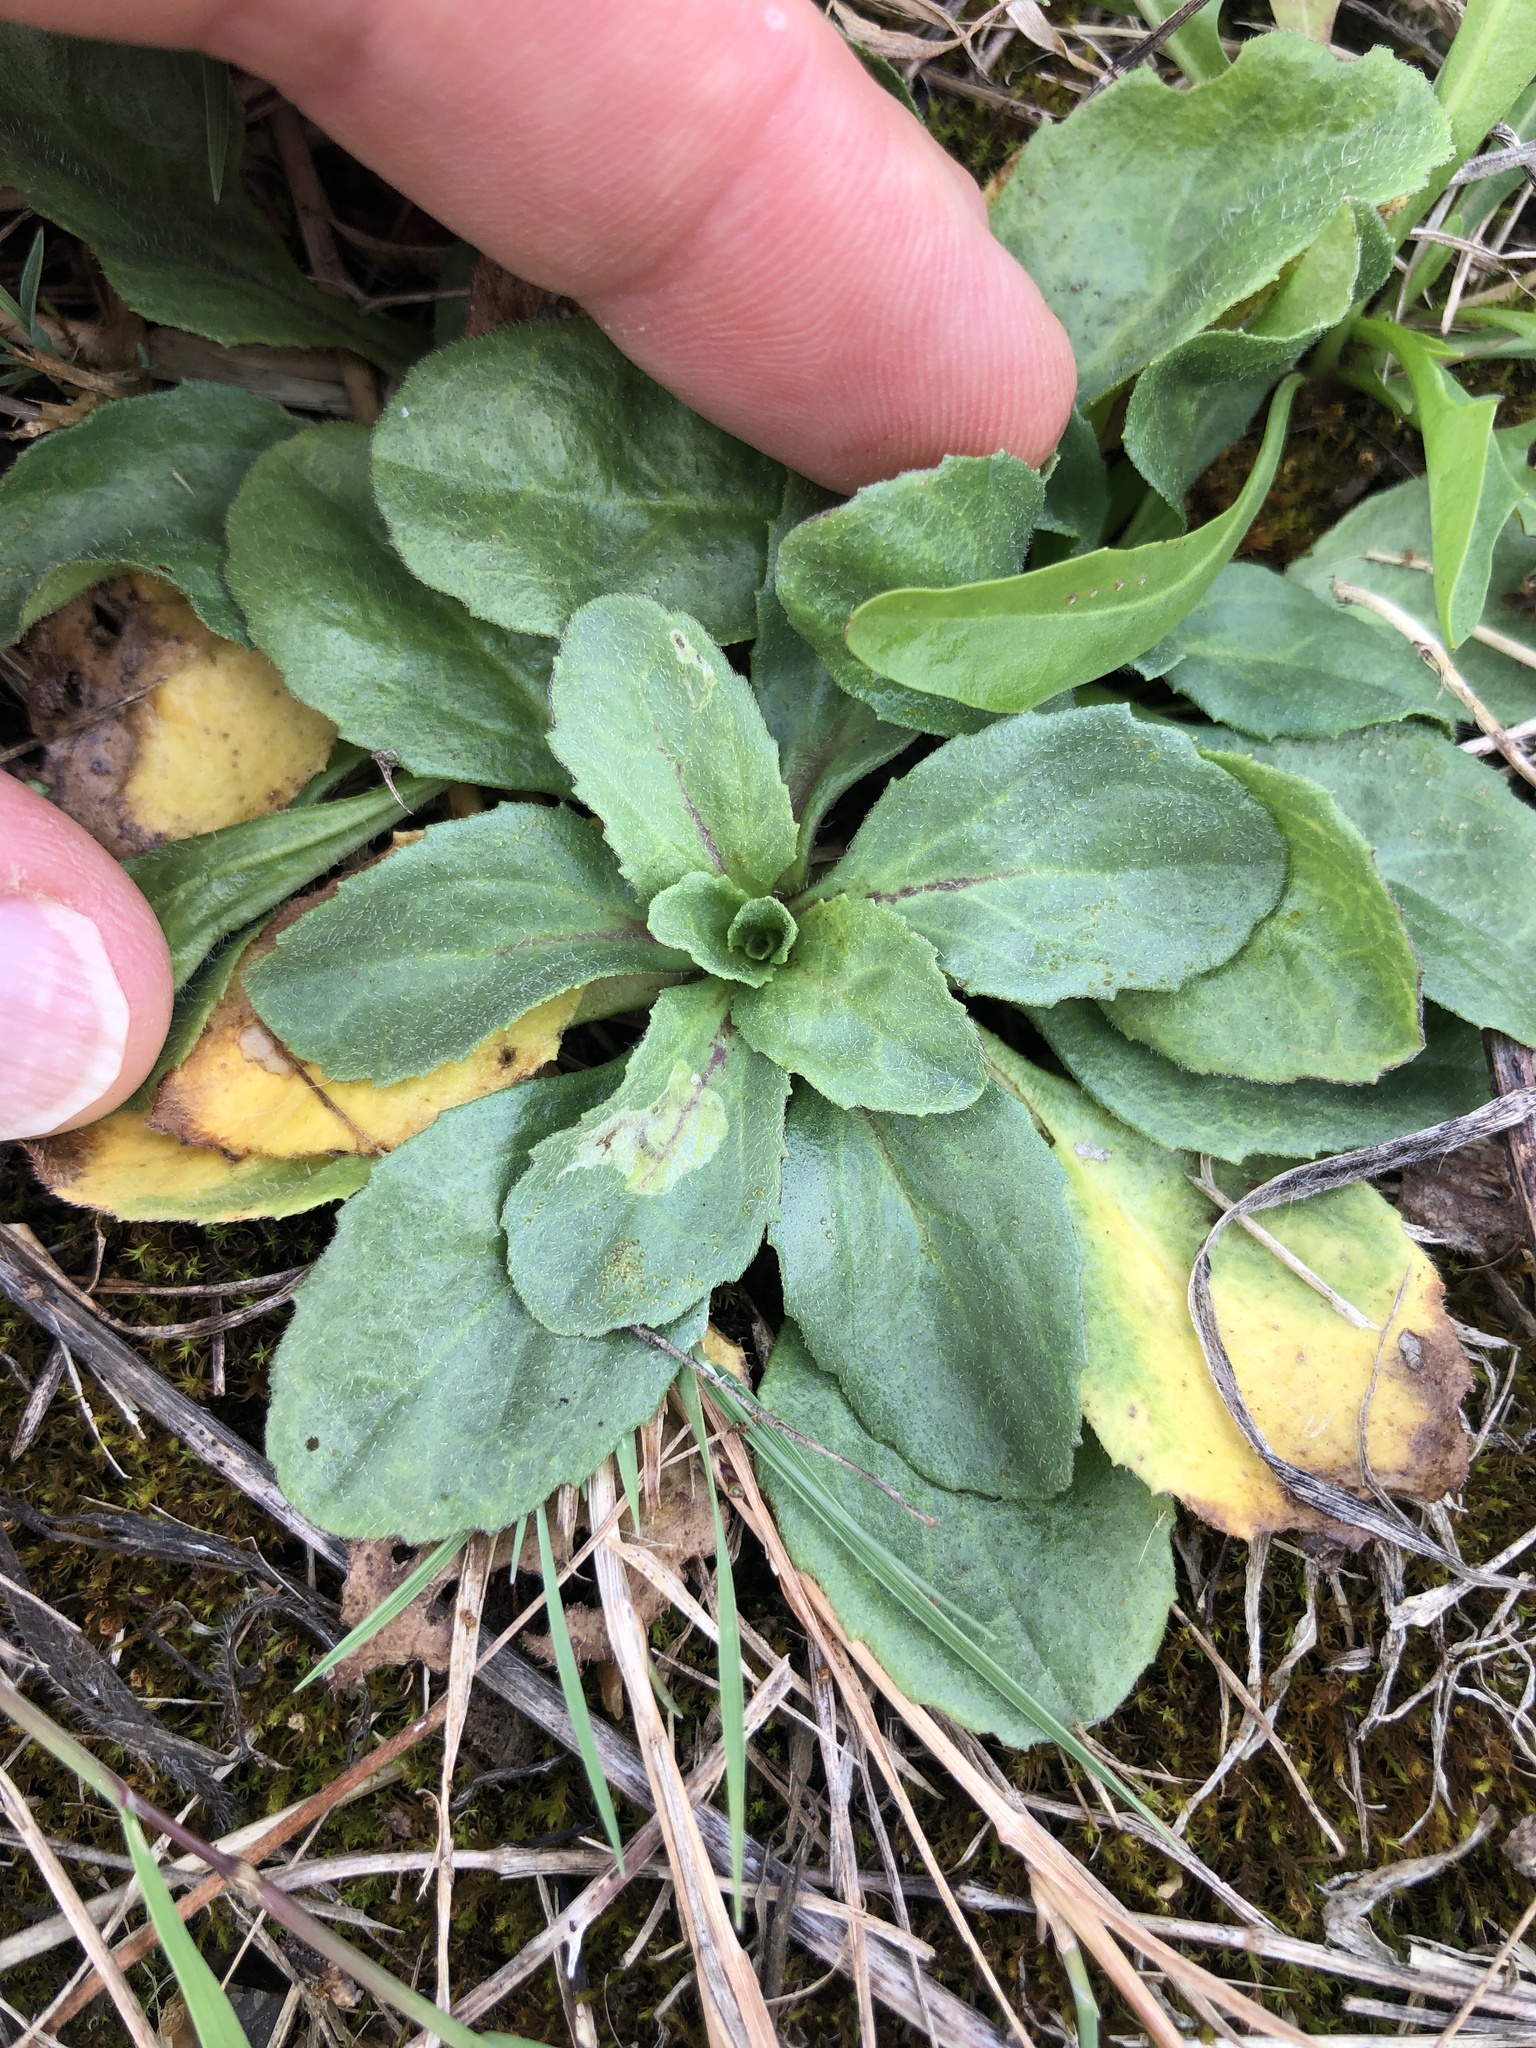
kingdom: Plantae
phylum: Tracheophyta
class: Magnoliopsida
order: Asterales
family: Asteraceae
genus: Bellis
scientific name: Bellis perennis
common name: Lawndaisy
